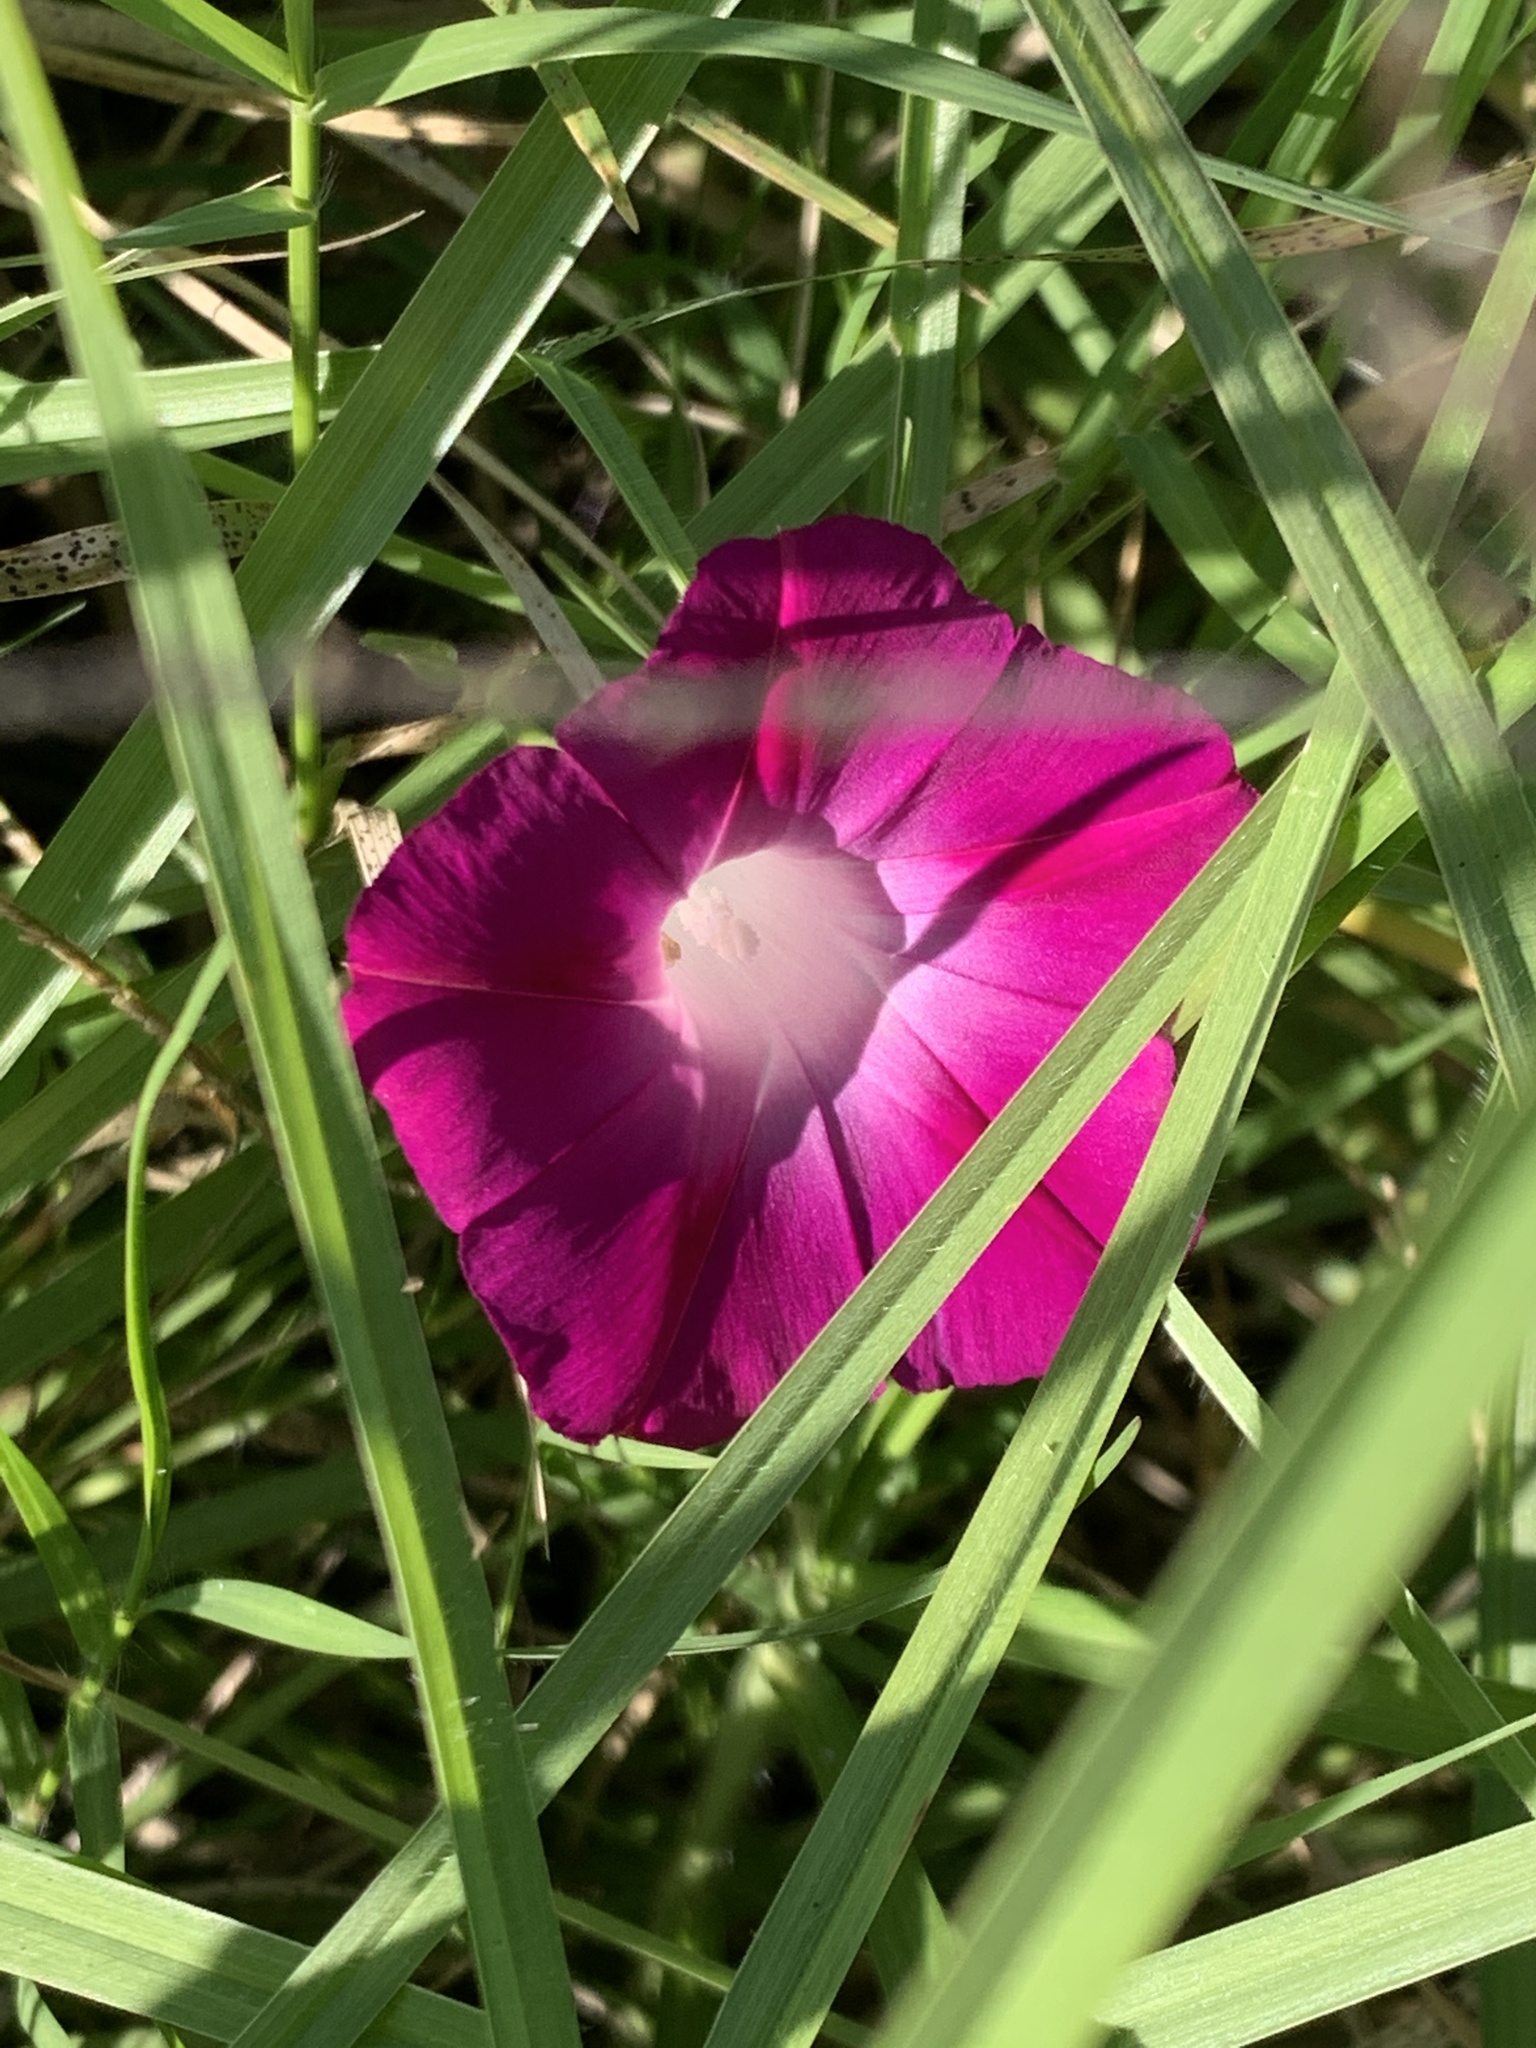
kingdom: Plantae
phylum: Tracheophyta
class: Magnoliopsida
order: Solanales
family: Convolvulaceae
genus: Ipomoea
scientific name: Ipomoea purpurea
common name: Common morning-glory
